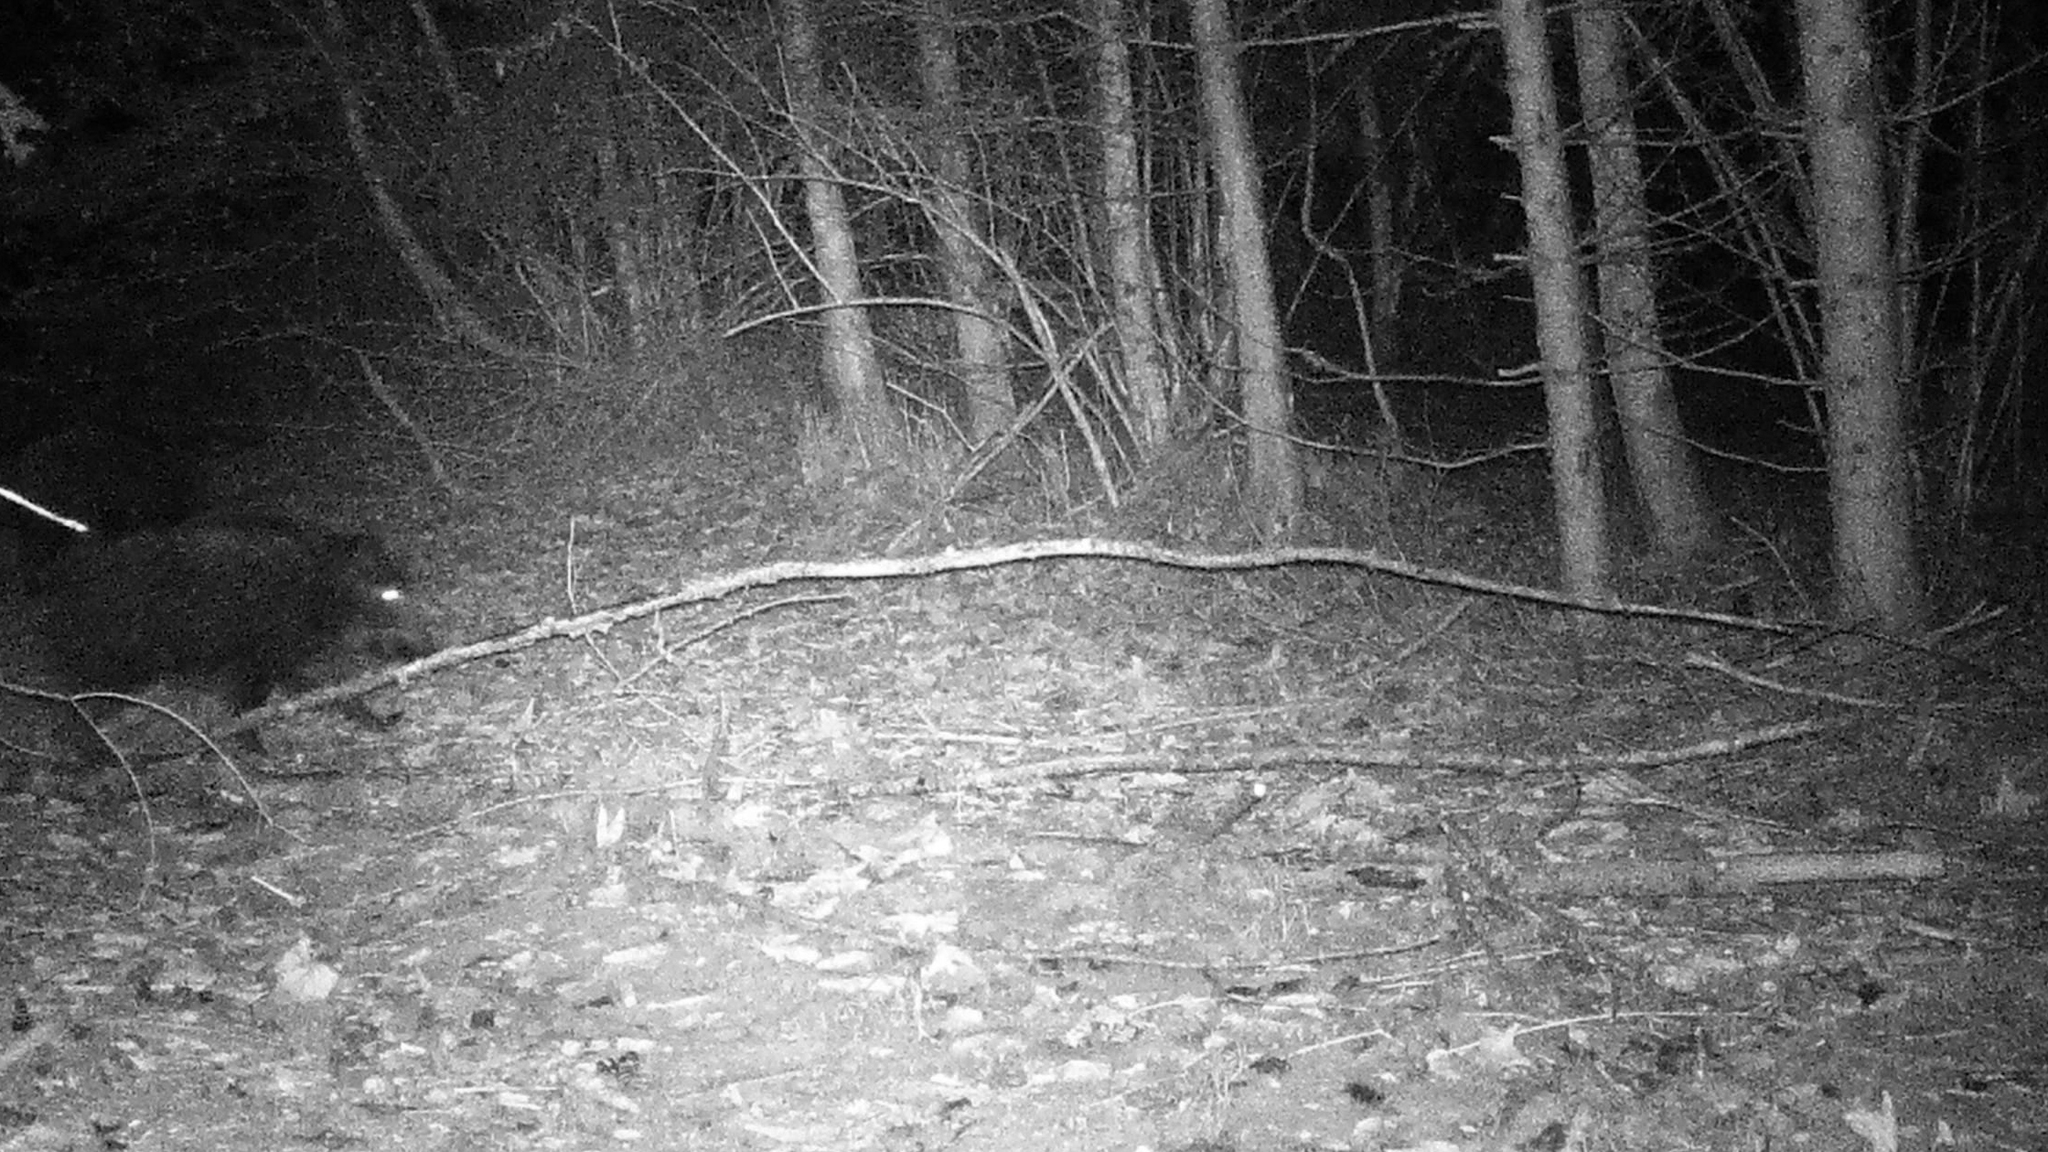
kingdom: Animalia
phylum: Chordata
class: Mammalia
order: Artiodactyla
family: Suidae
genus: Sus
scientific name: Sus scrofa
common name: Wild boar
